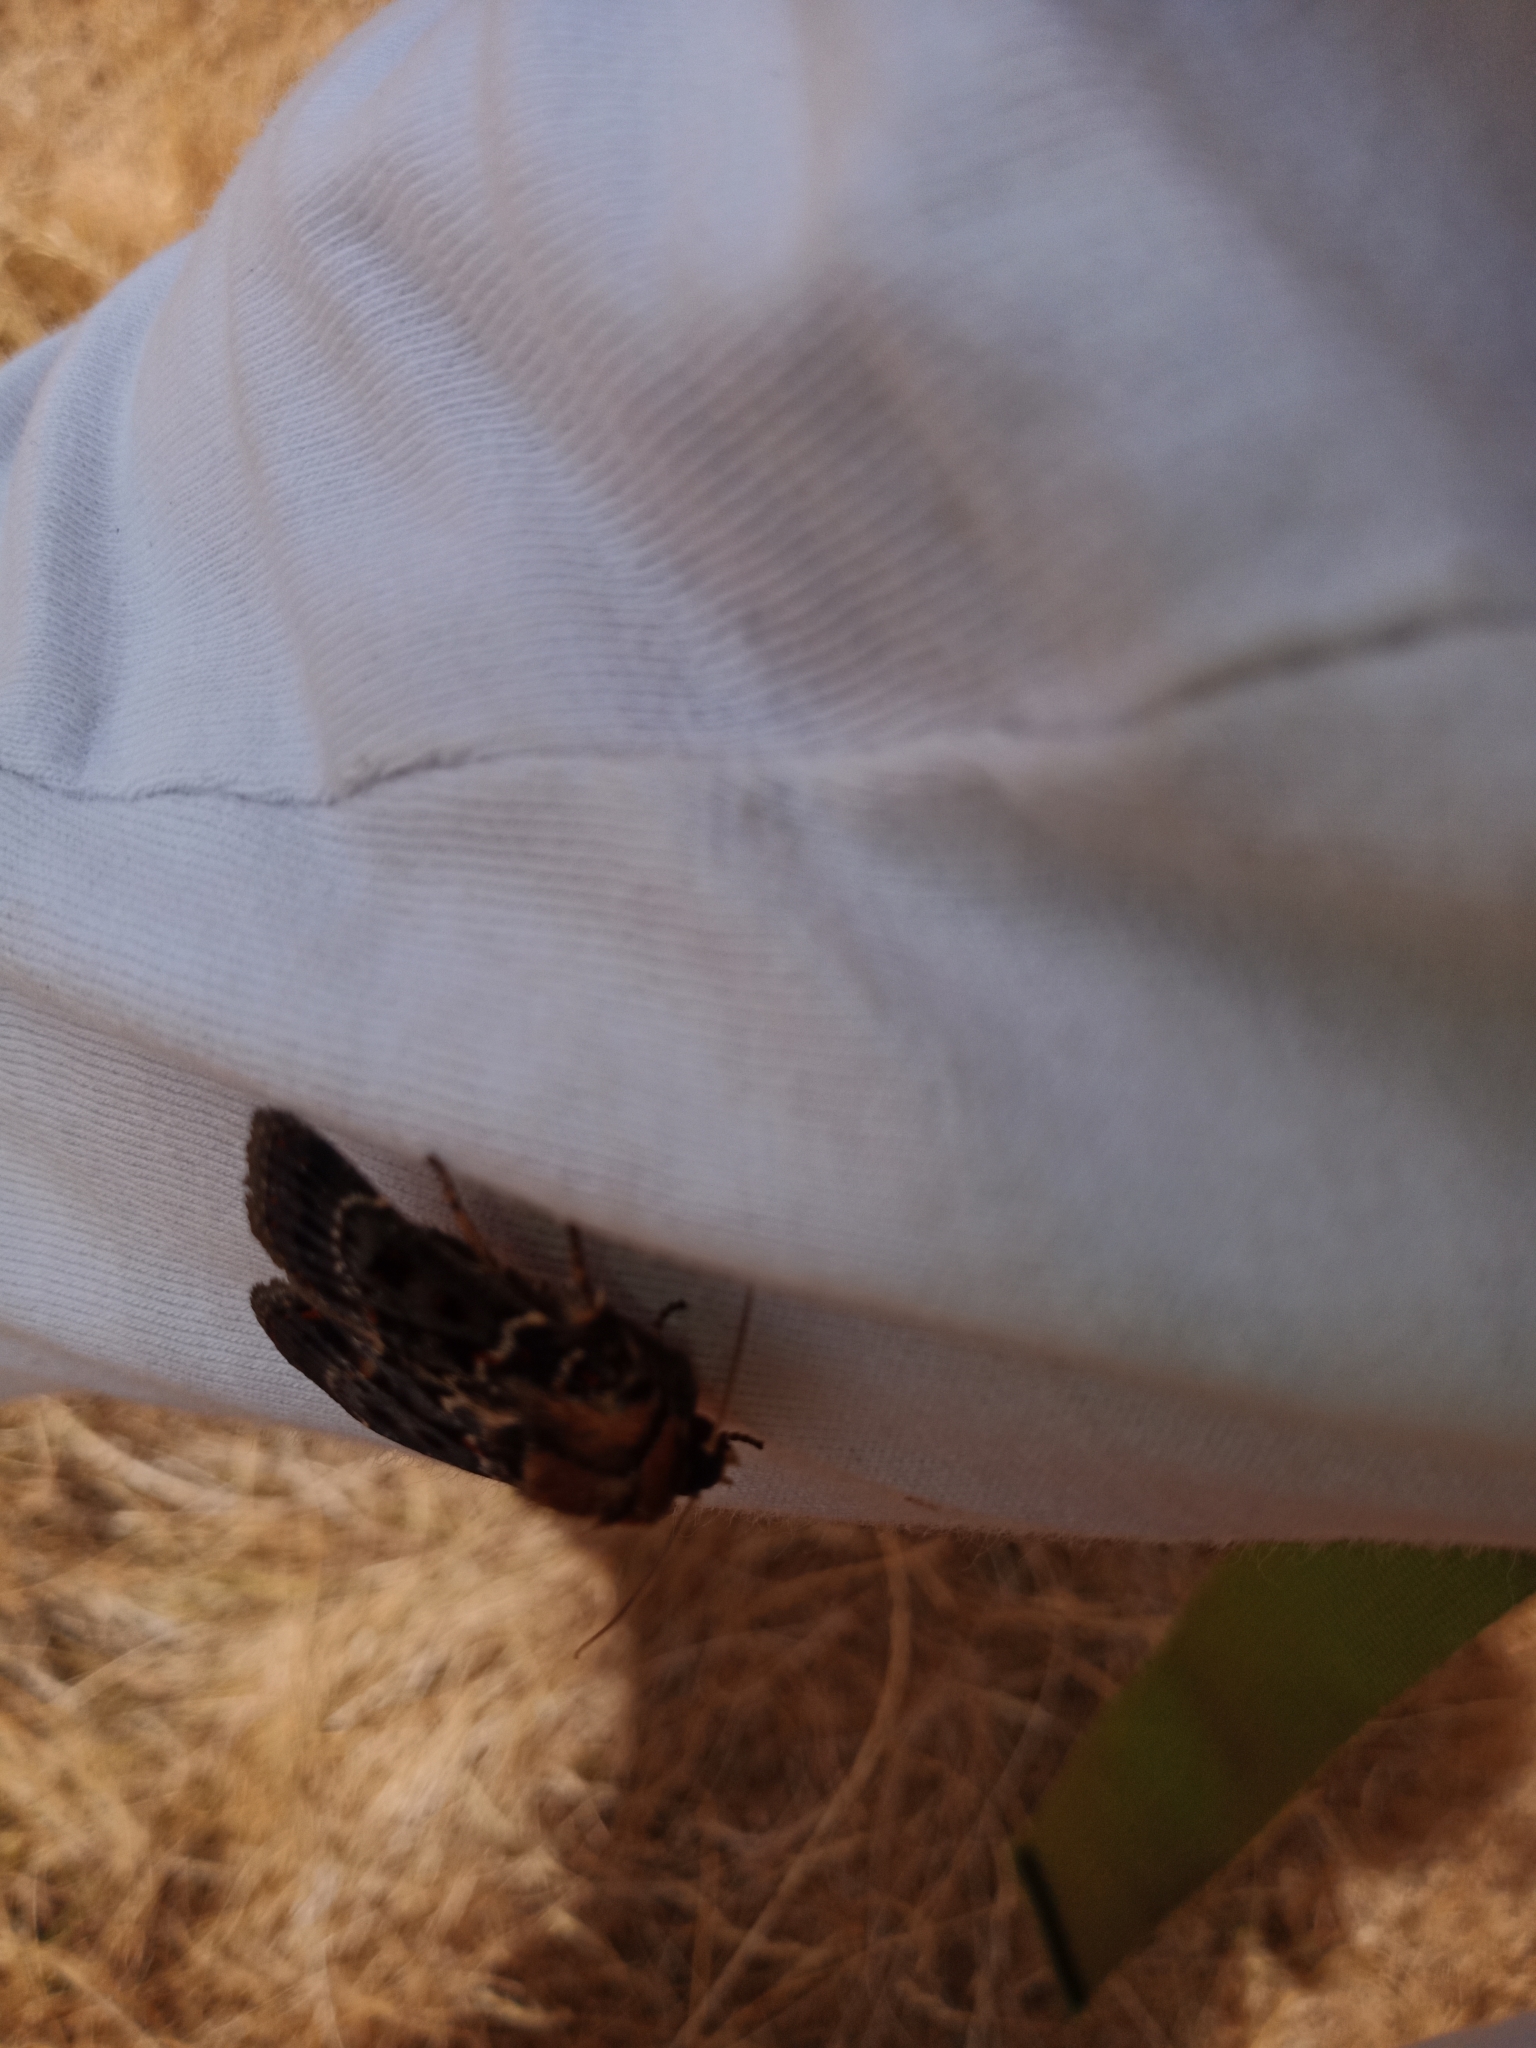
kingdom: Animalia
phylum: Arthropoda
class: Insecta
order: Lepidoptera
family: Noctuidae
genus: Proteuxoa
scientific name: Proteuxoa sanguinipuncta
